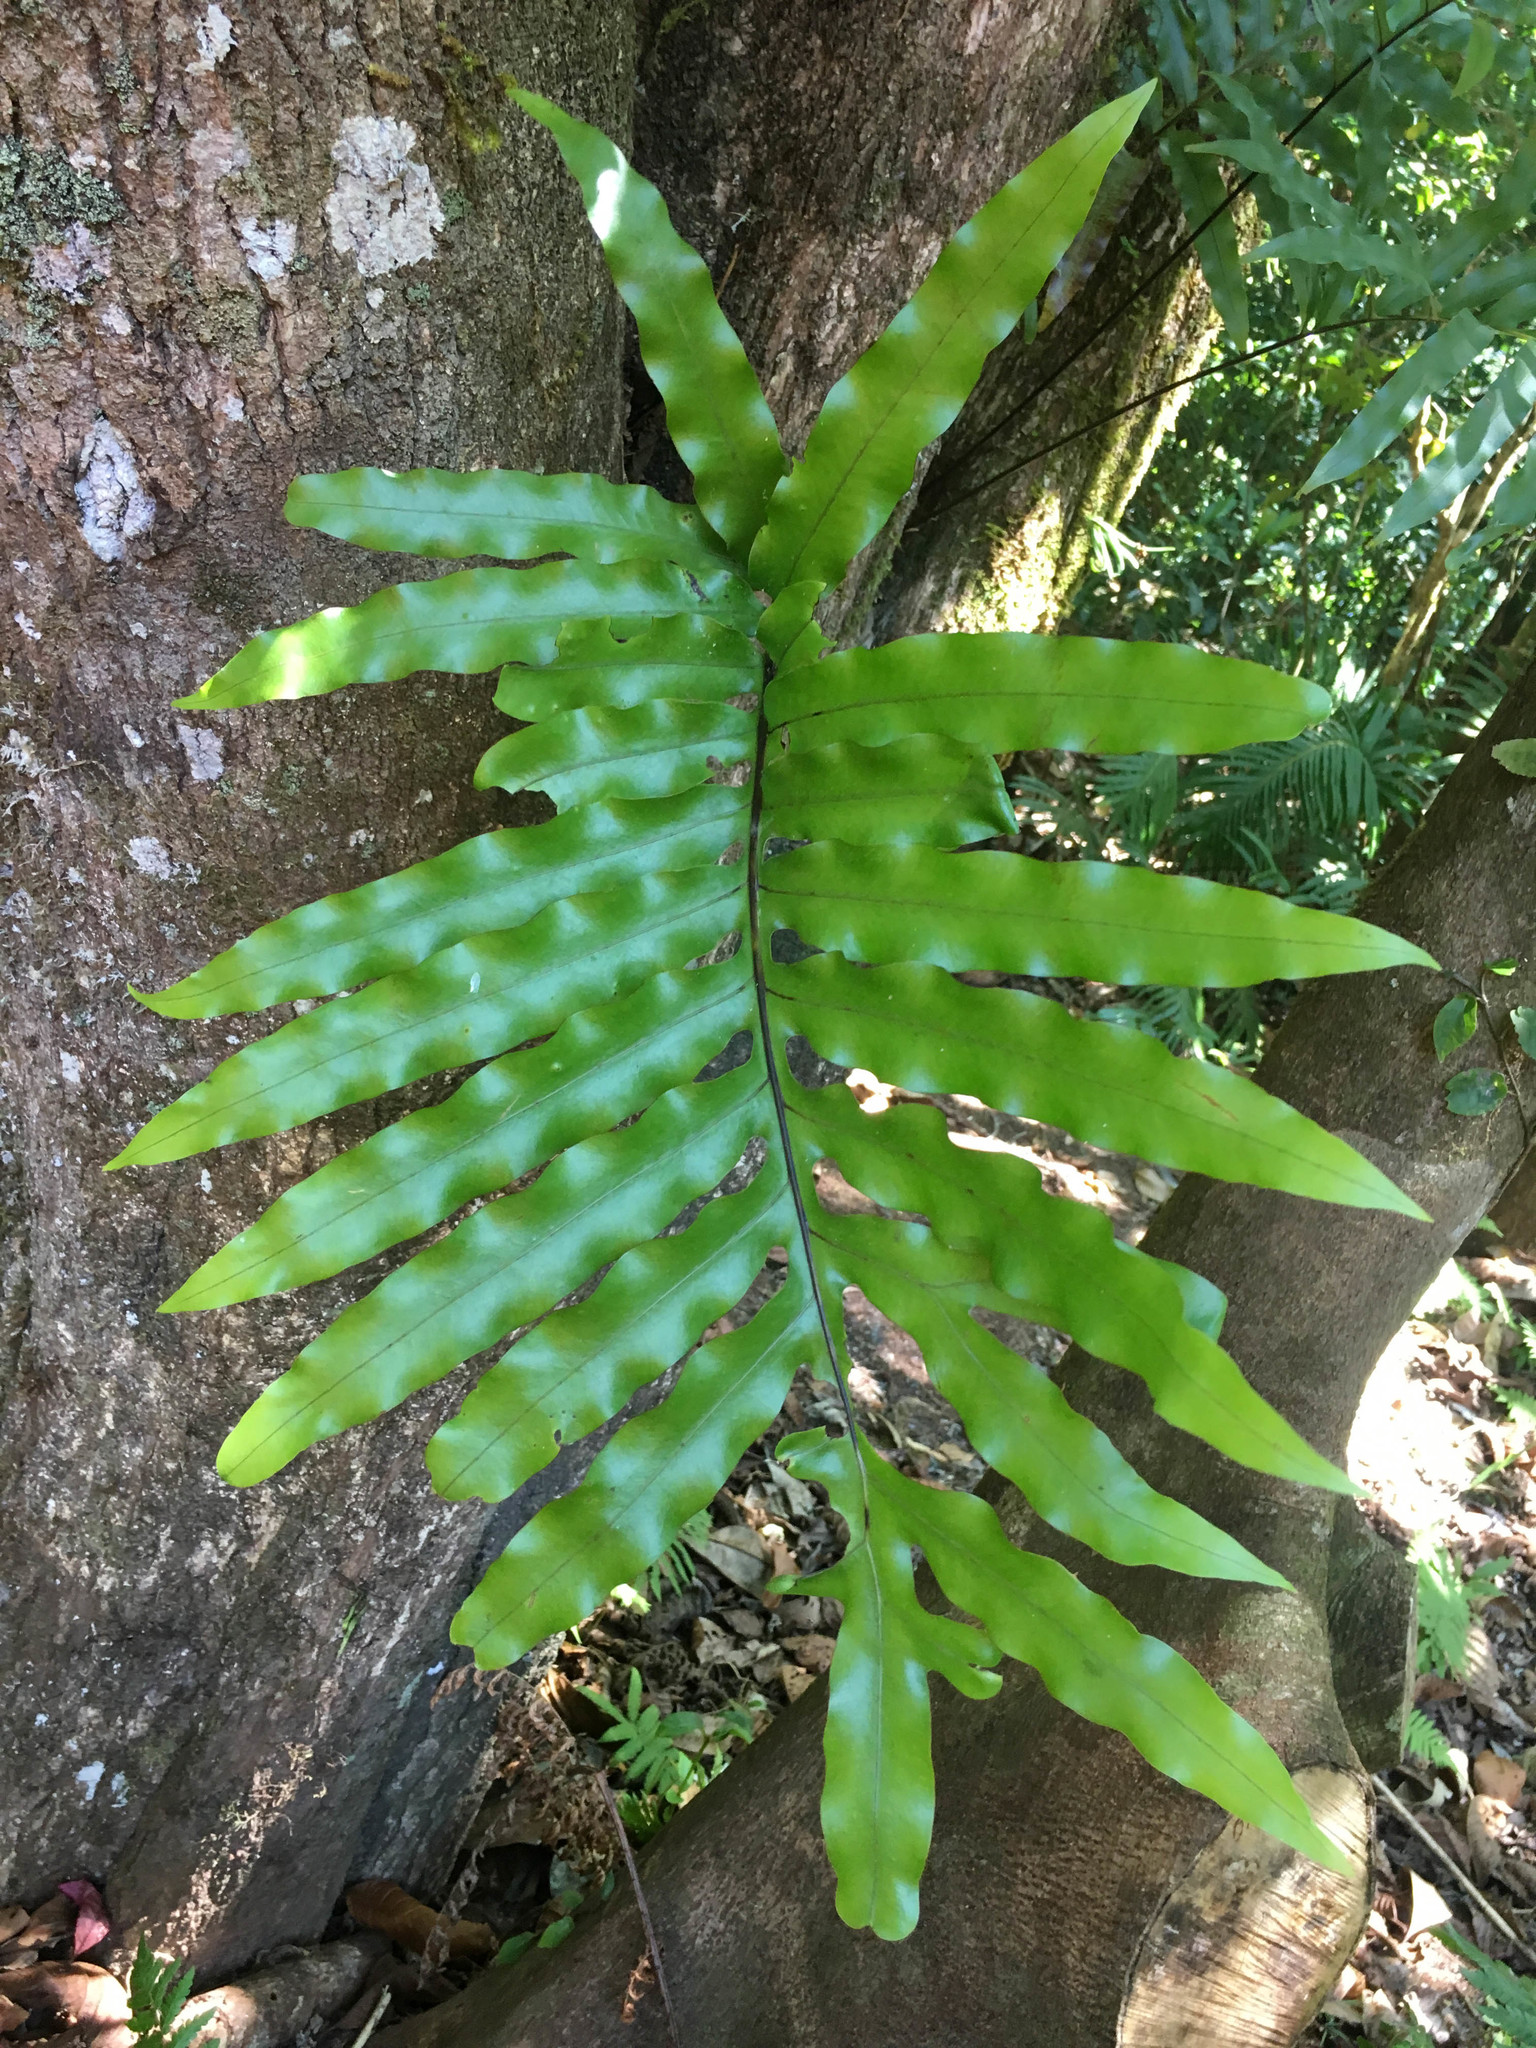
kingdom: Plantae
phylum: Tracheophyta
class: Polypodiopsida
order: Polypodiales
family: Polypodiaceae
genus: Lecanopteris
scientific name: Lecanopteris vieillardii
